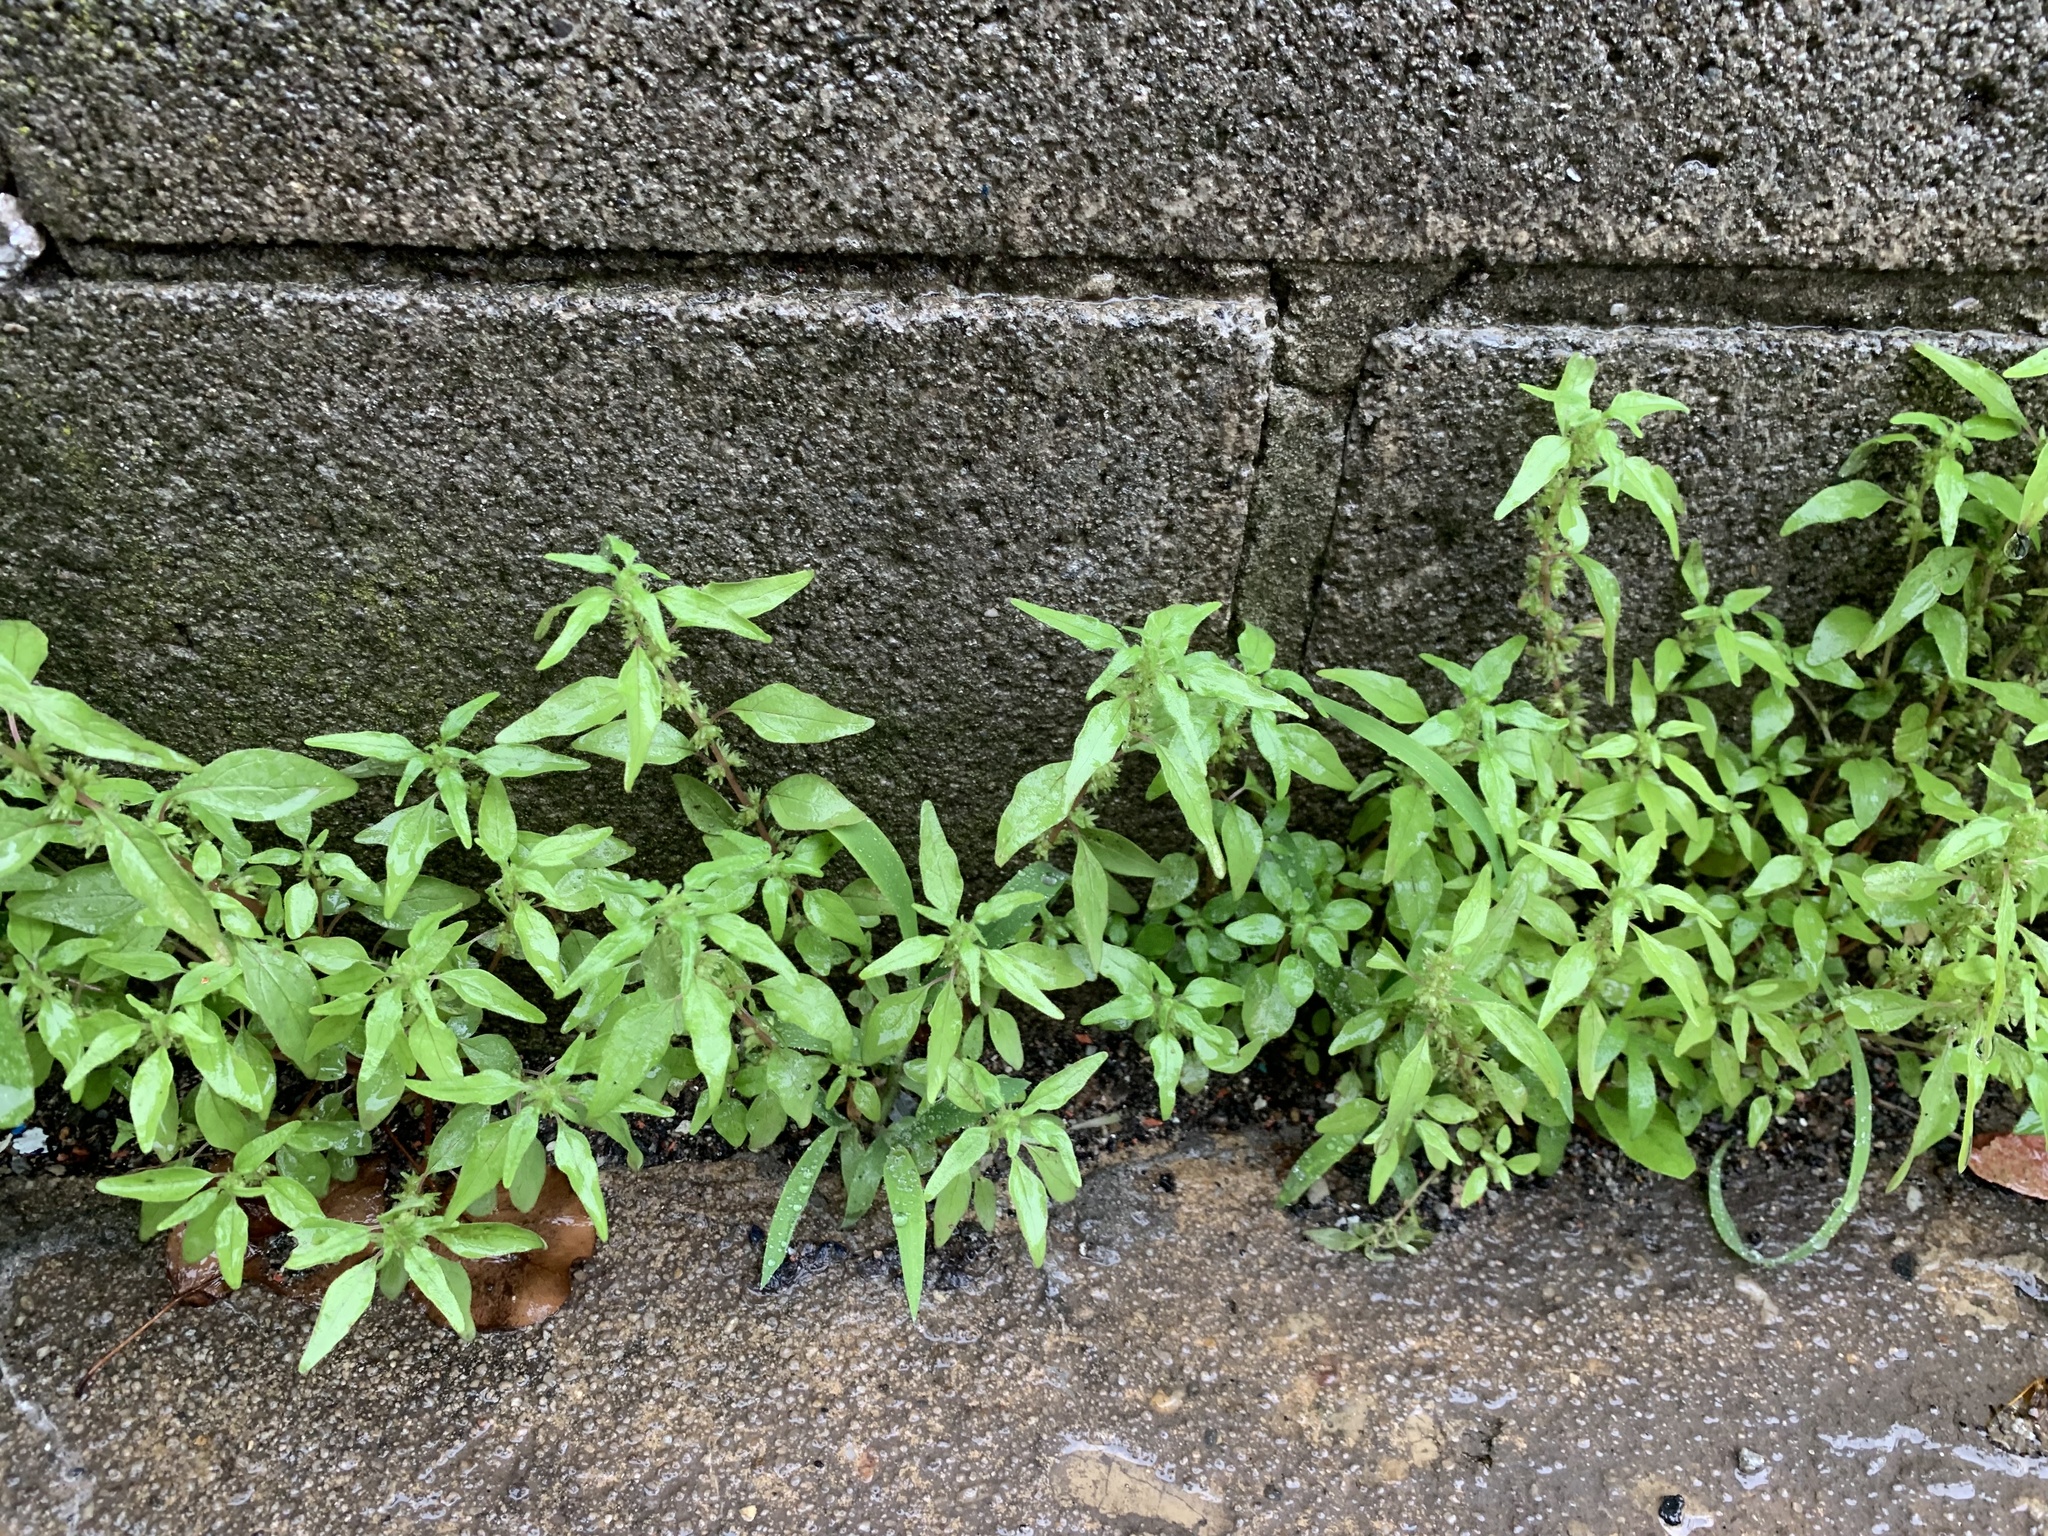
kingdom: Plantae
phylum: Tracheophyta
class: Magnoliopsida
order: Rosales
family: Urticaceae
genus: Parietaria
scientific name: Parietaria pensylvanica
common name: Pennsylvania pellitory
